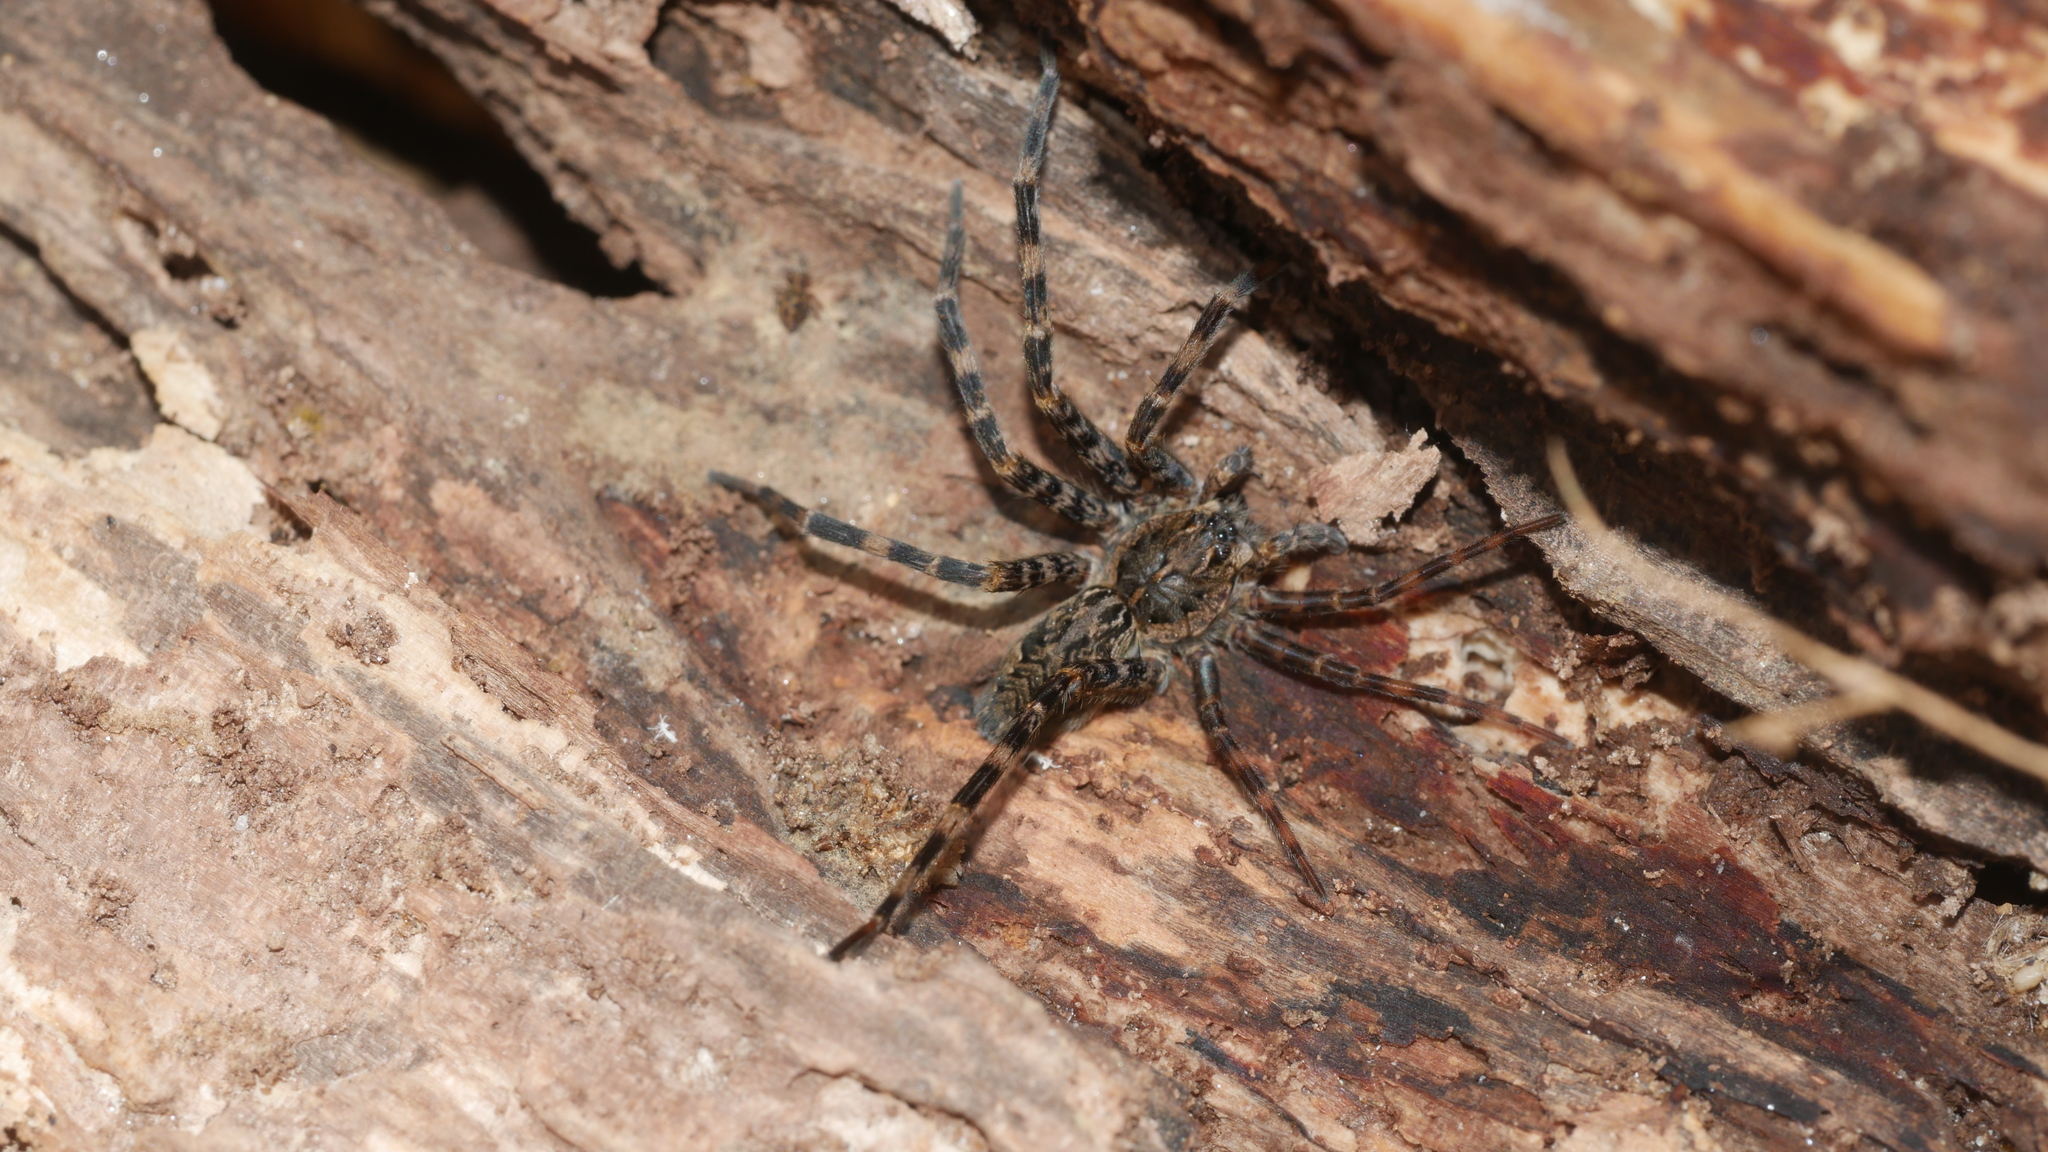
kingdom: Animalia
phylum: Arthropoda
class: Arachnida
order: Araneae
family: Pisauridae
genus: Dolomedes
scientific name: Dolomedes tenebrosus
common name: Dark fishing spider
